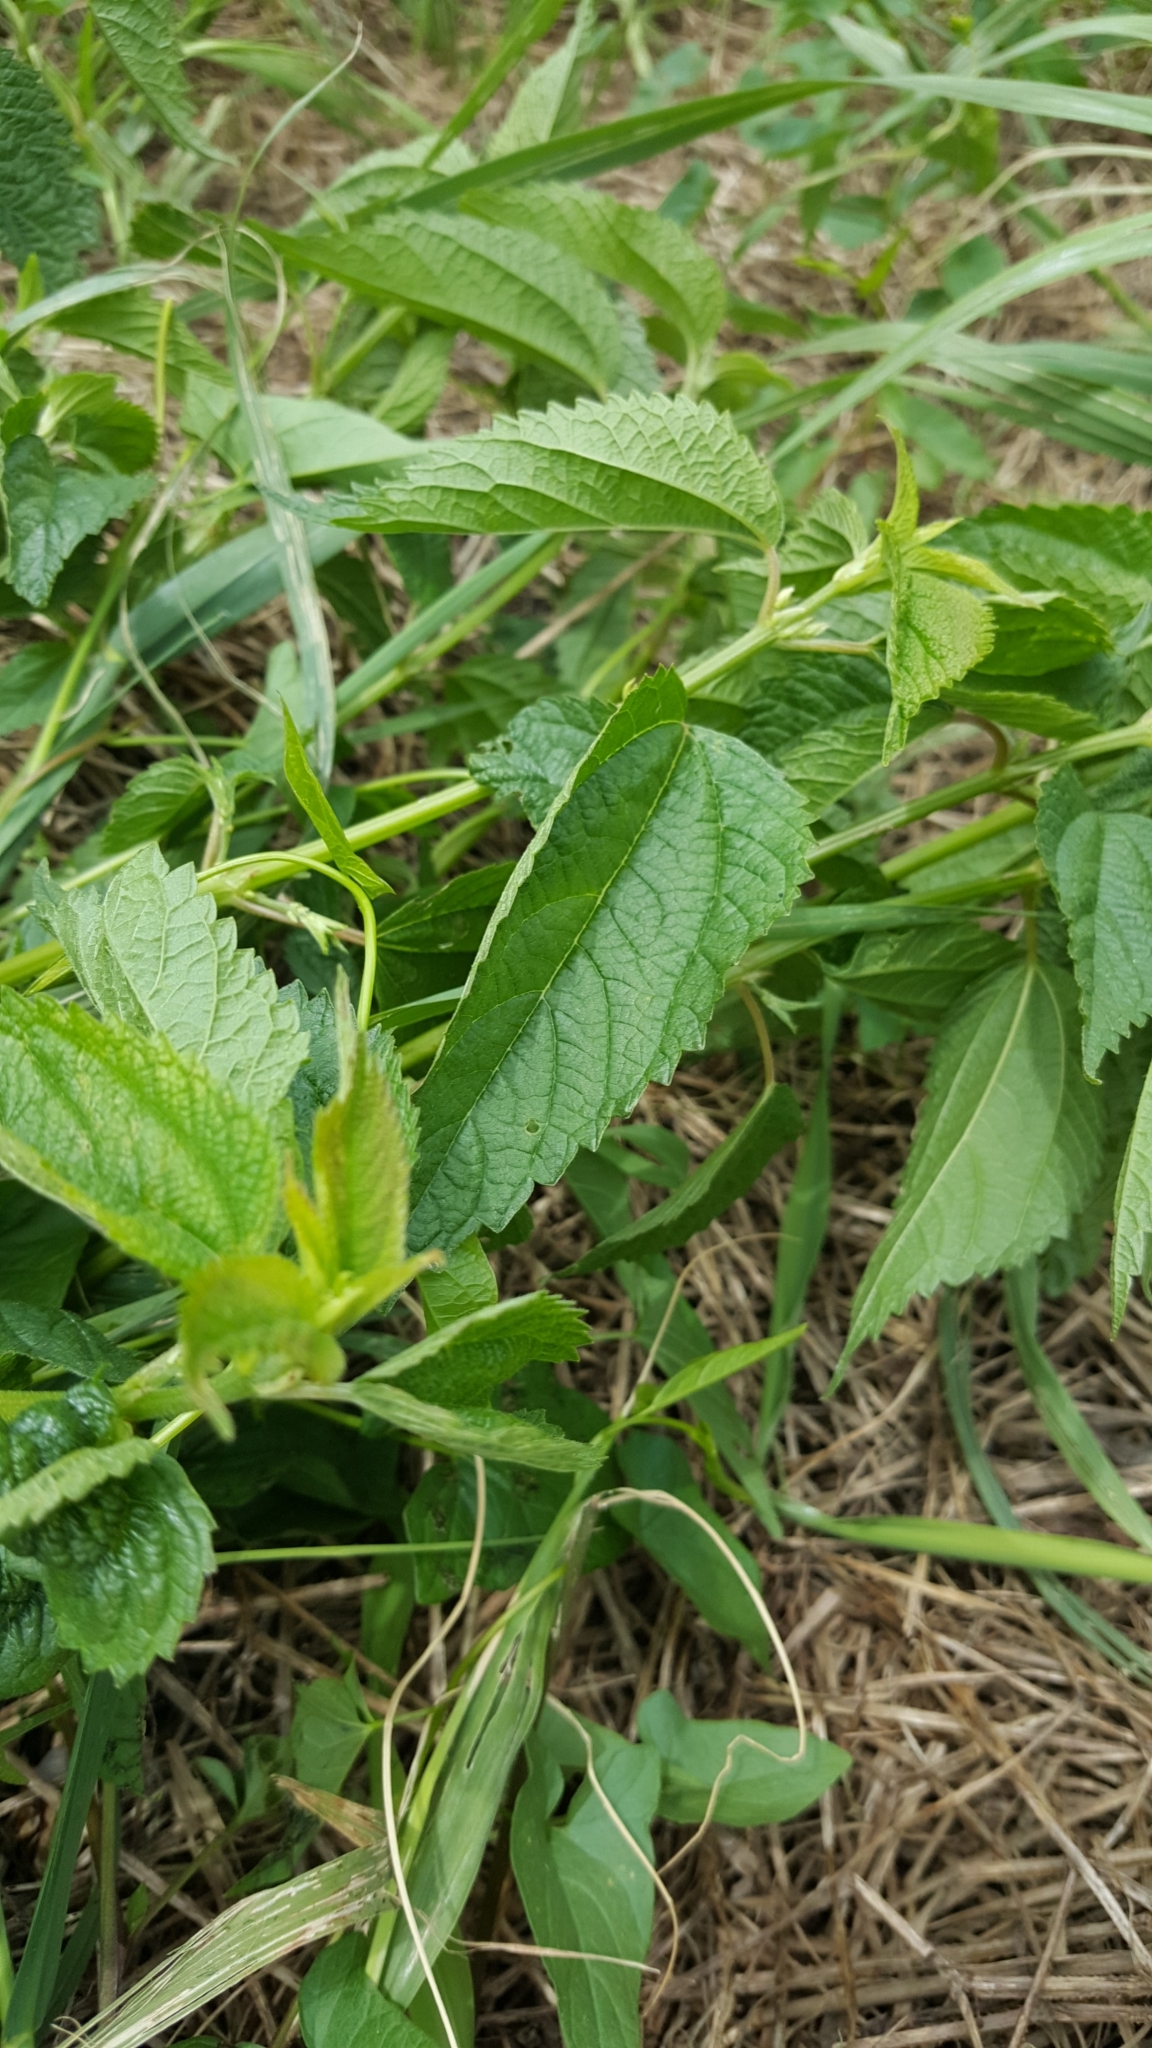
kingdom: Plantae
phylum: Tracheophyta
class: Magnoliopsida
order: Rosales
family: Urticaceae
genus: Urtica
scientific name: Urtica dioica
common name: Common nettle
